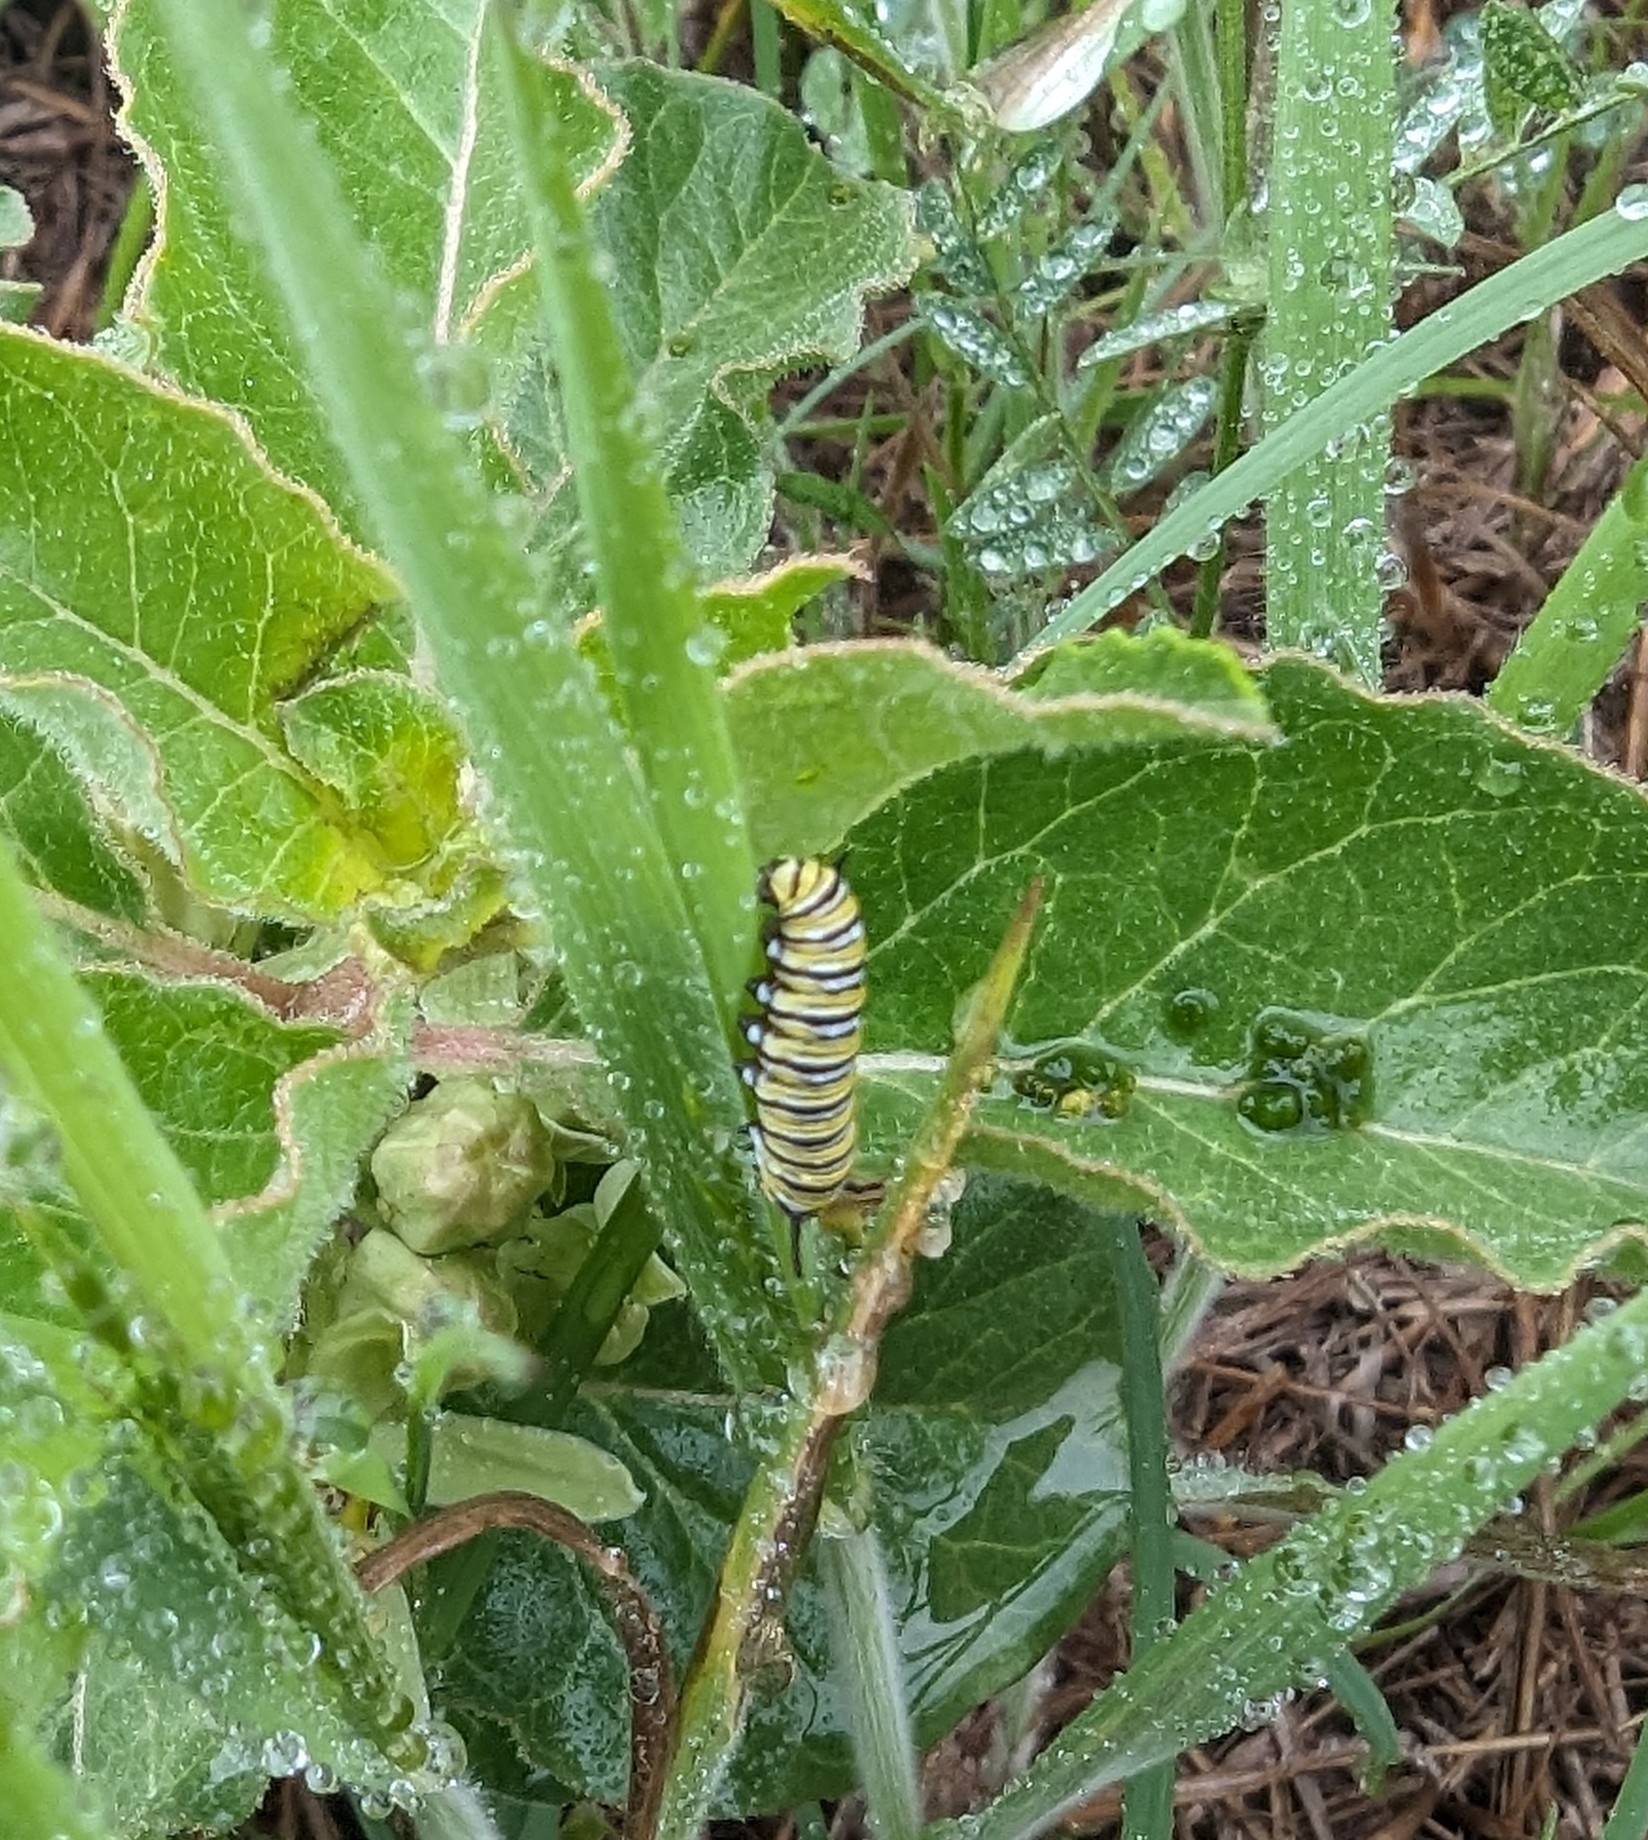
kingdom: Animalia
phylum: Arthropoda
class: Insecta
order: Lepidoptera
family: Nymphalidae
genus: Danaus
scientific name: Danaus plexippus
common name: Monarch
